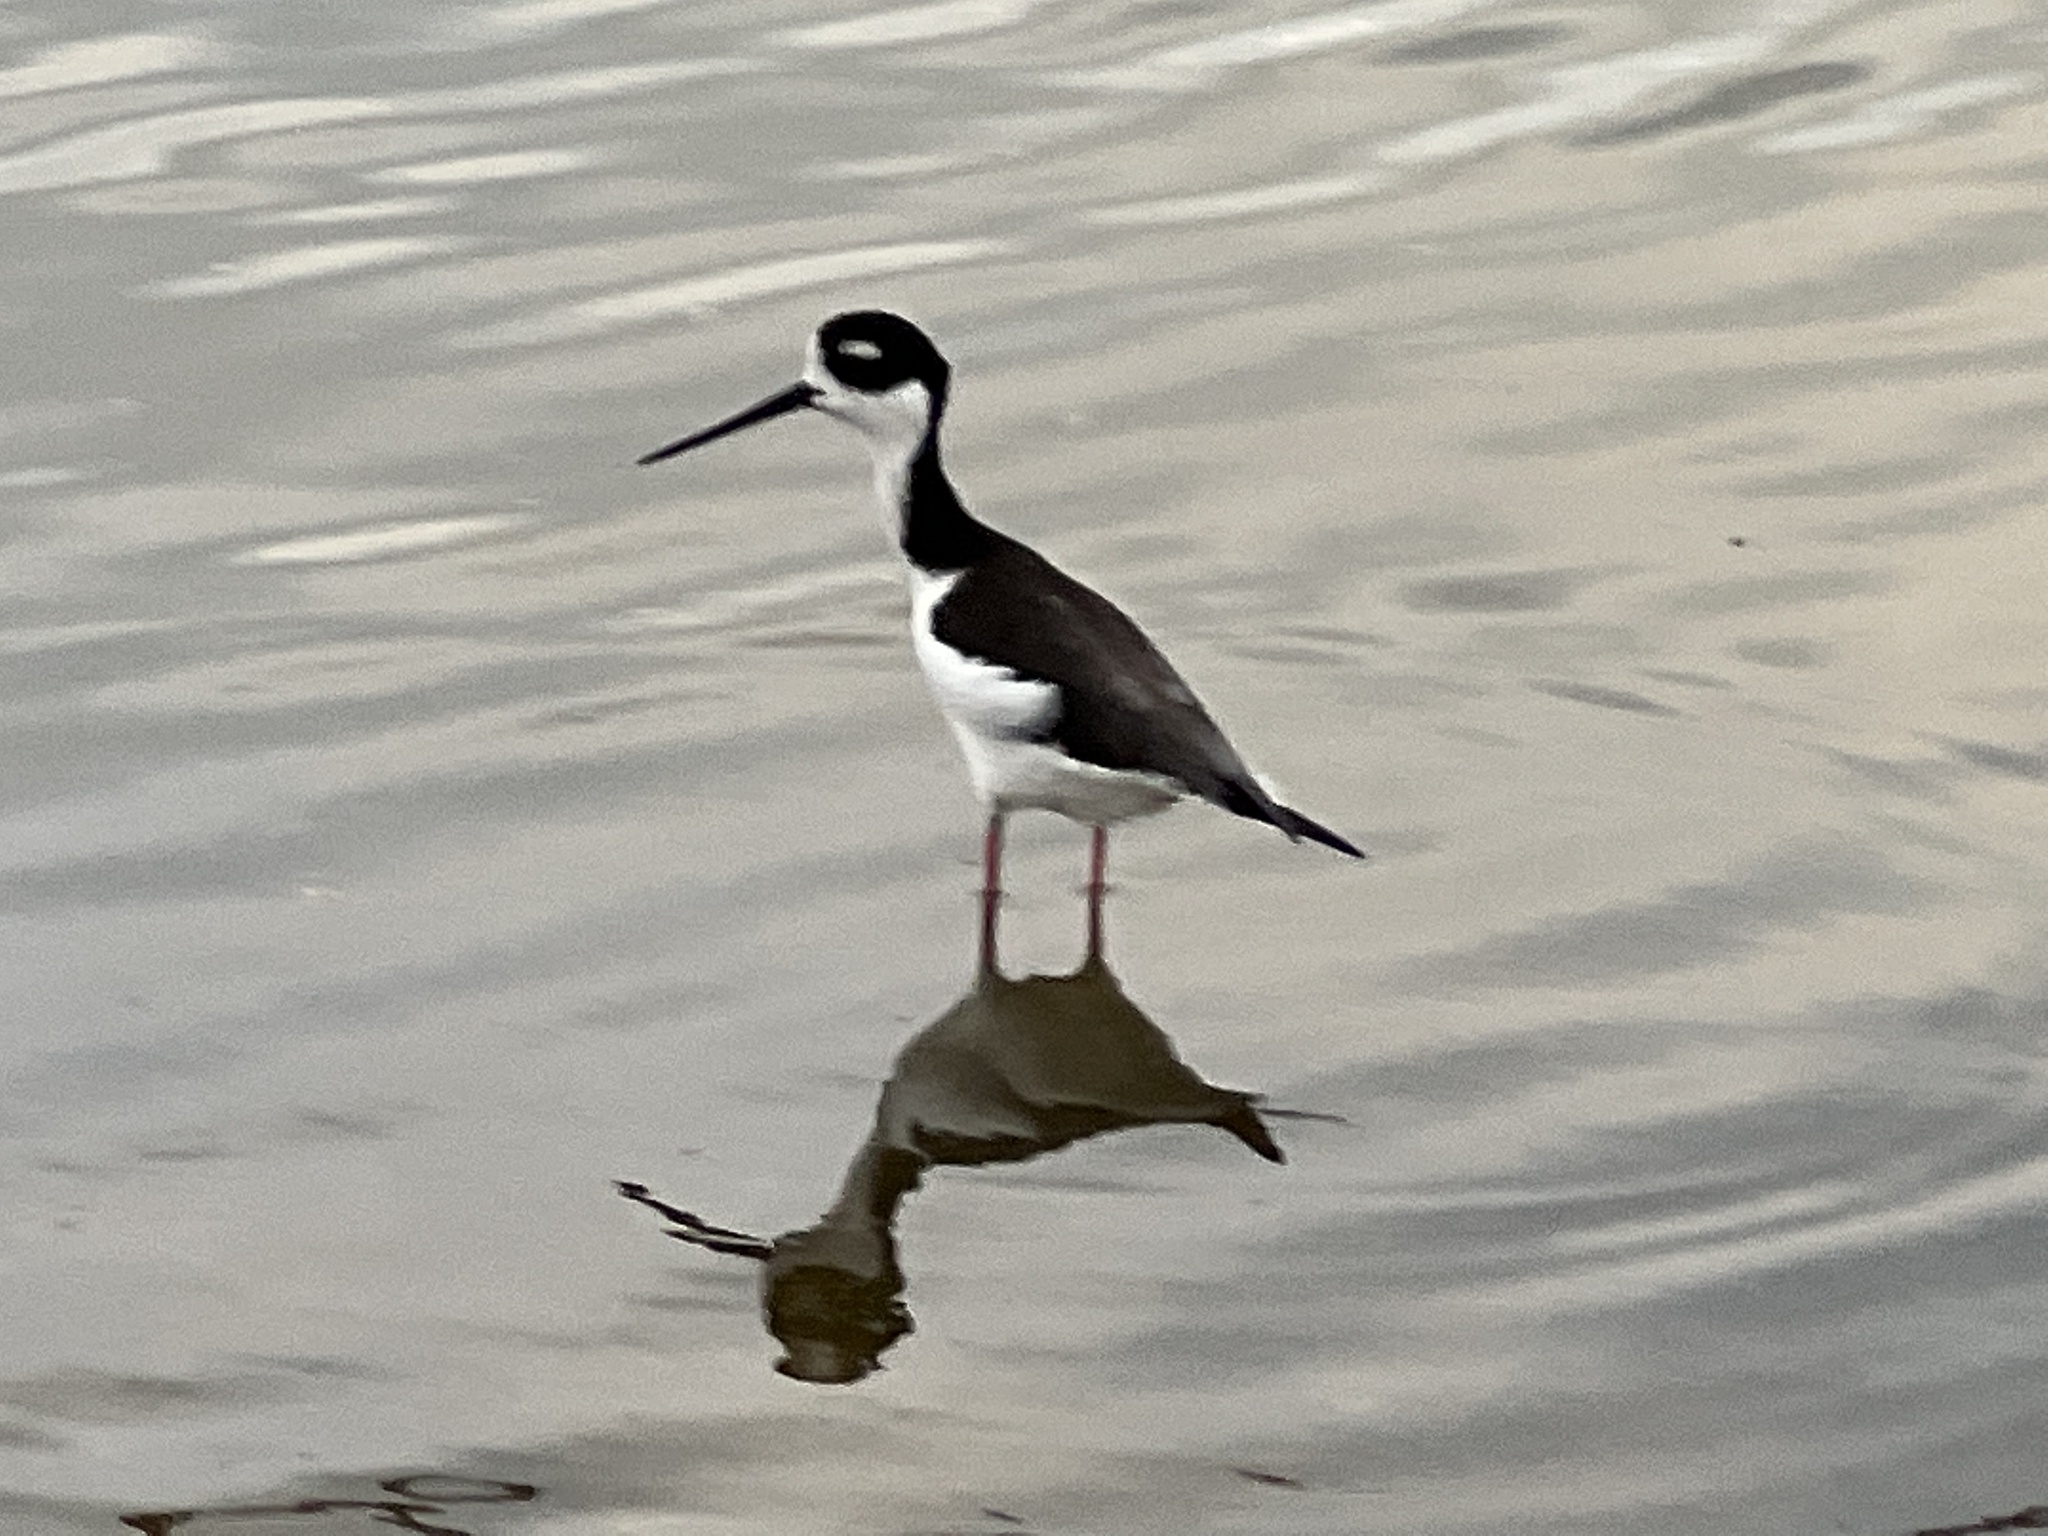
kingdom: Animalia
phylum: Chordata
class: Aves
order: Charadriiformes
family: Recurvirostridae
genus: Himantopus
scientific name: Himantopus mexicanus
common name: Black-necked stilt
